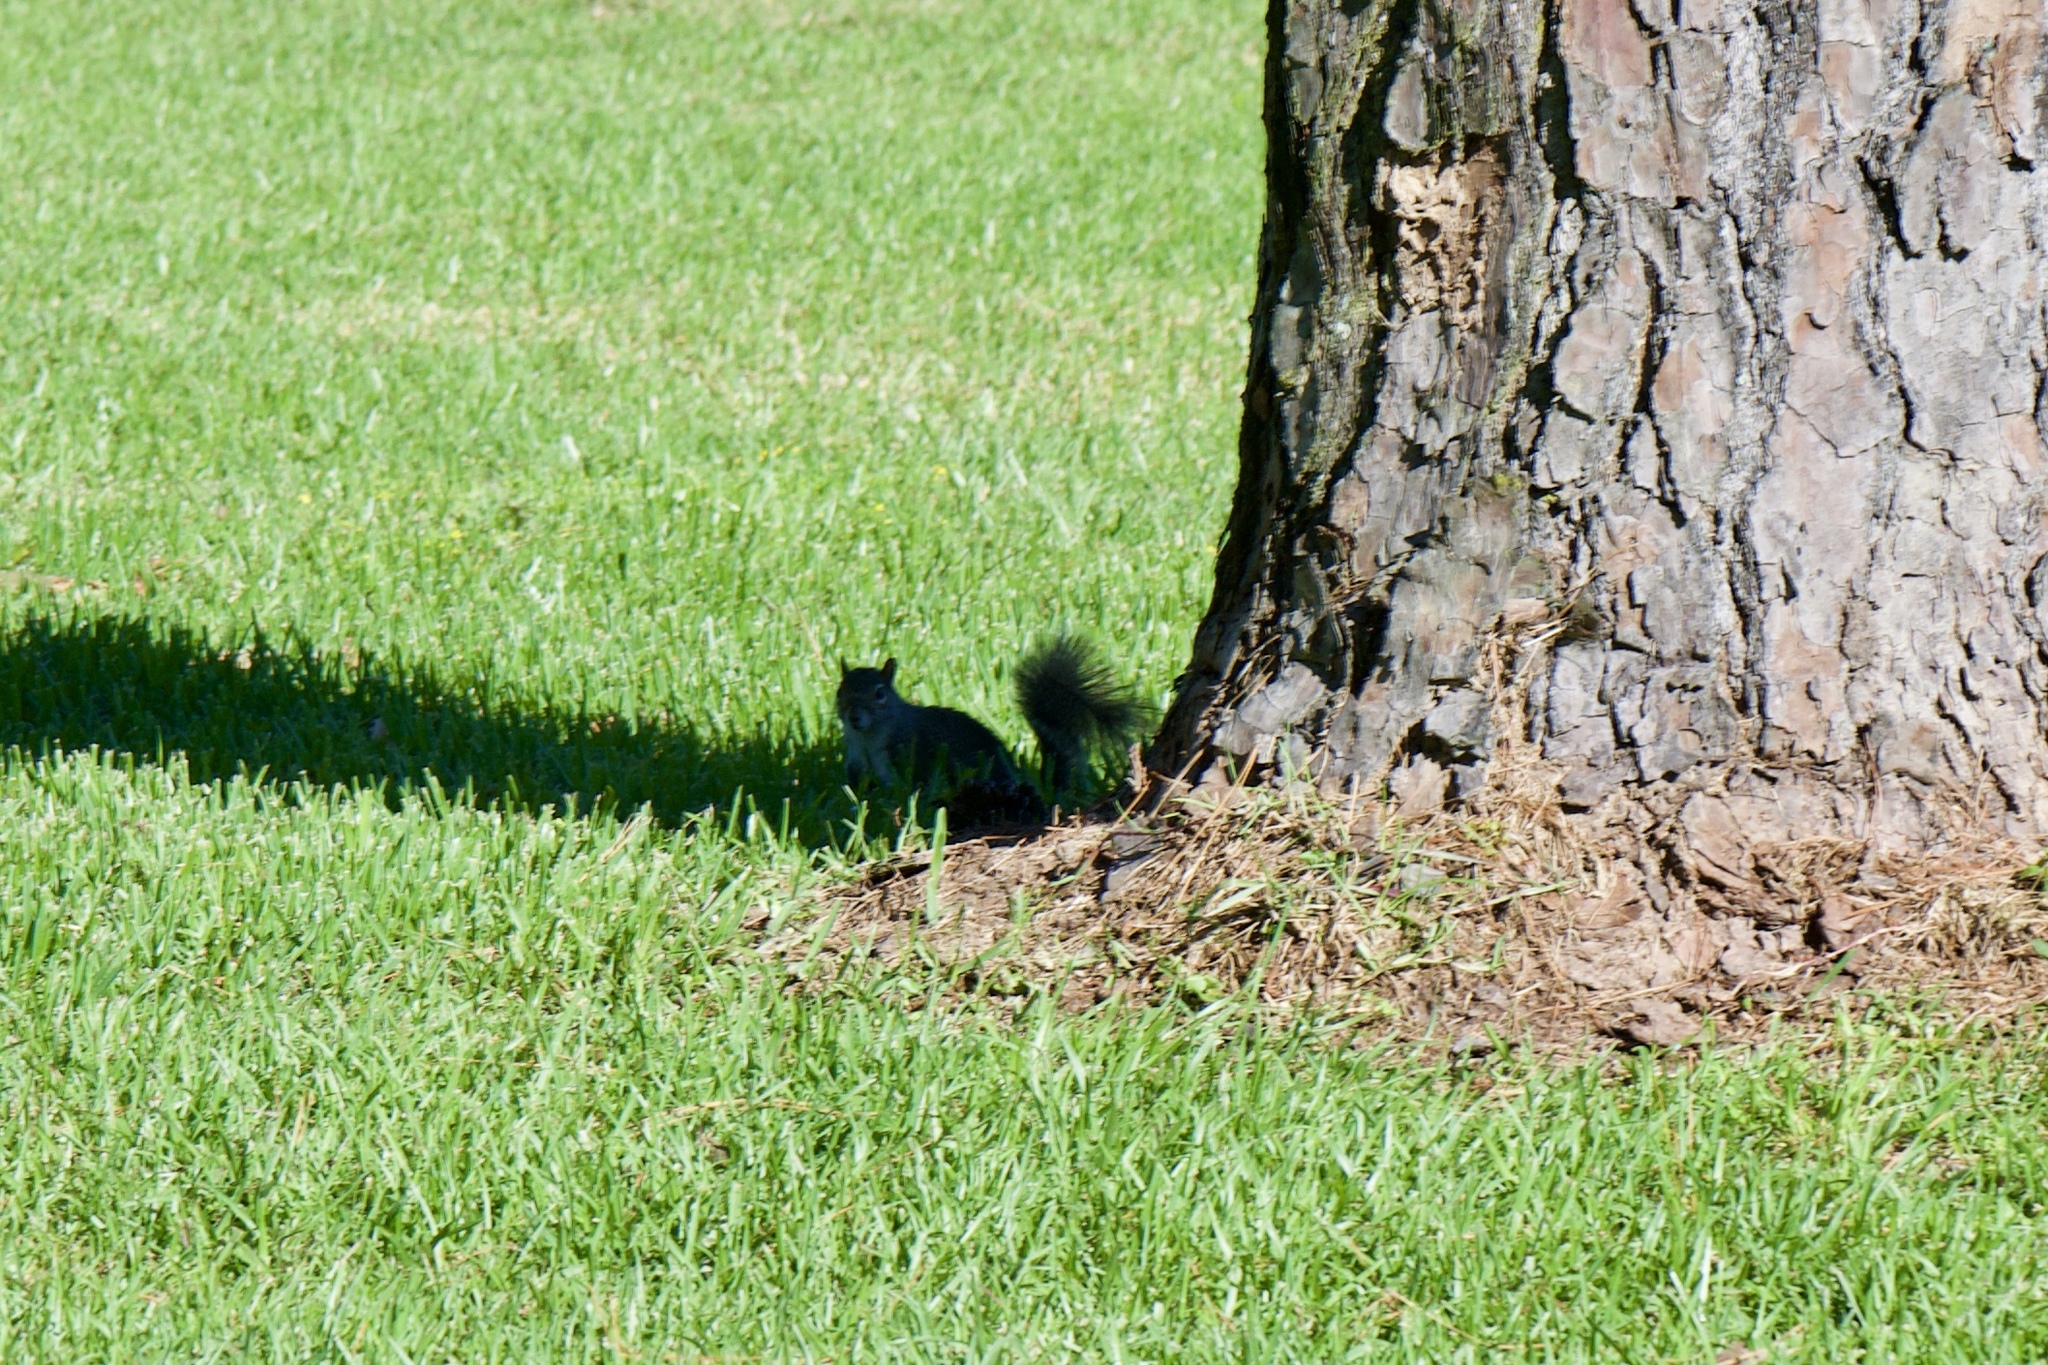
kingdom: Animalia
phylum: Chordata
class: Mammalia
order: Rodentia
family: Sciuridae
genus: Sciurus
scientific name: Sciurus carolinensis
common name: Eastern gray squirrel
